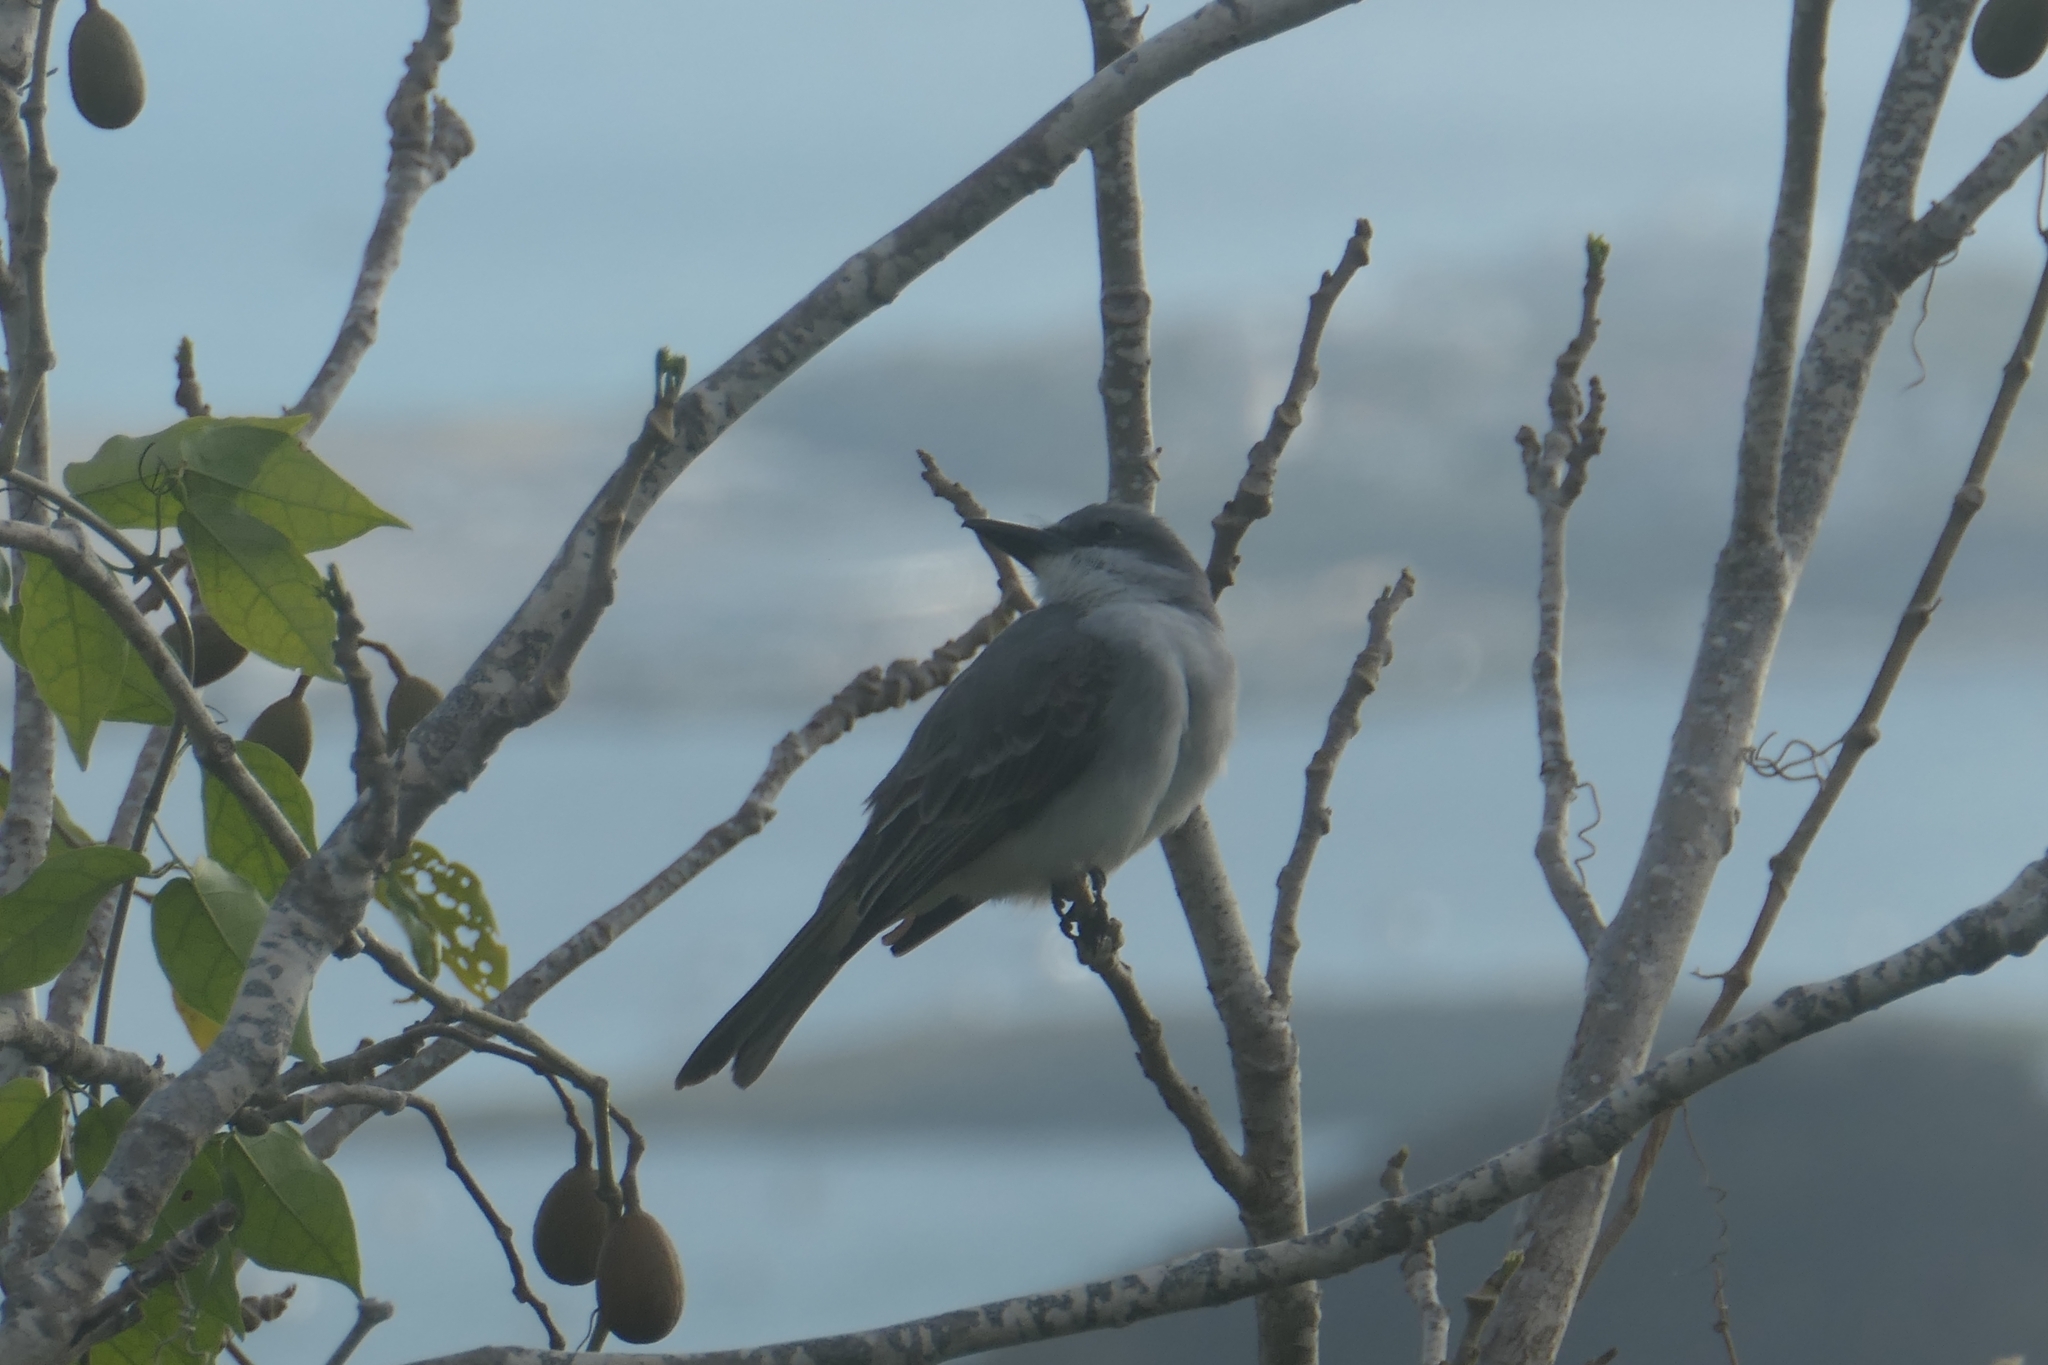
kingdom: Animalia
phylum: Chordata
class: Aves
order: Passeriformes
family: Tyrannidae
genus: Tyrannus
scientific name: Tyrannus dominicensis
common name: Gray kingbird
